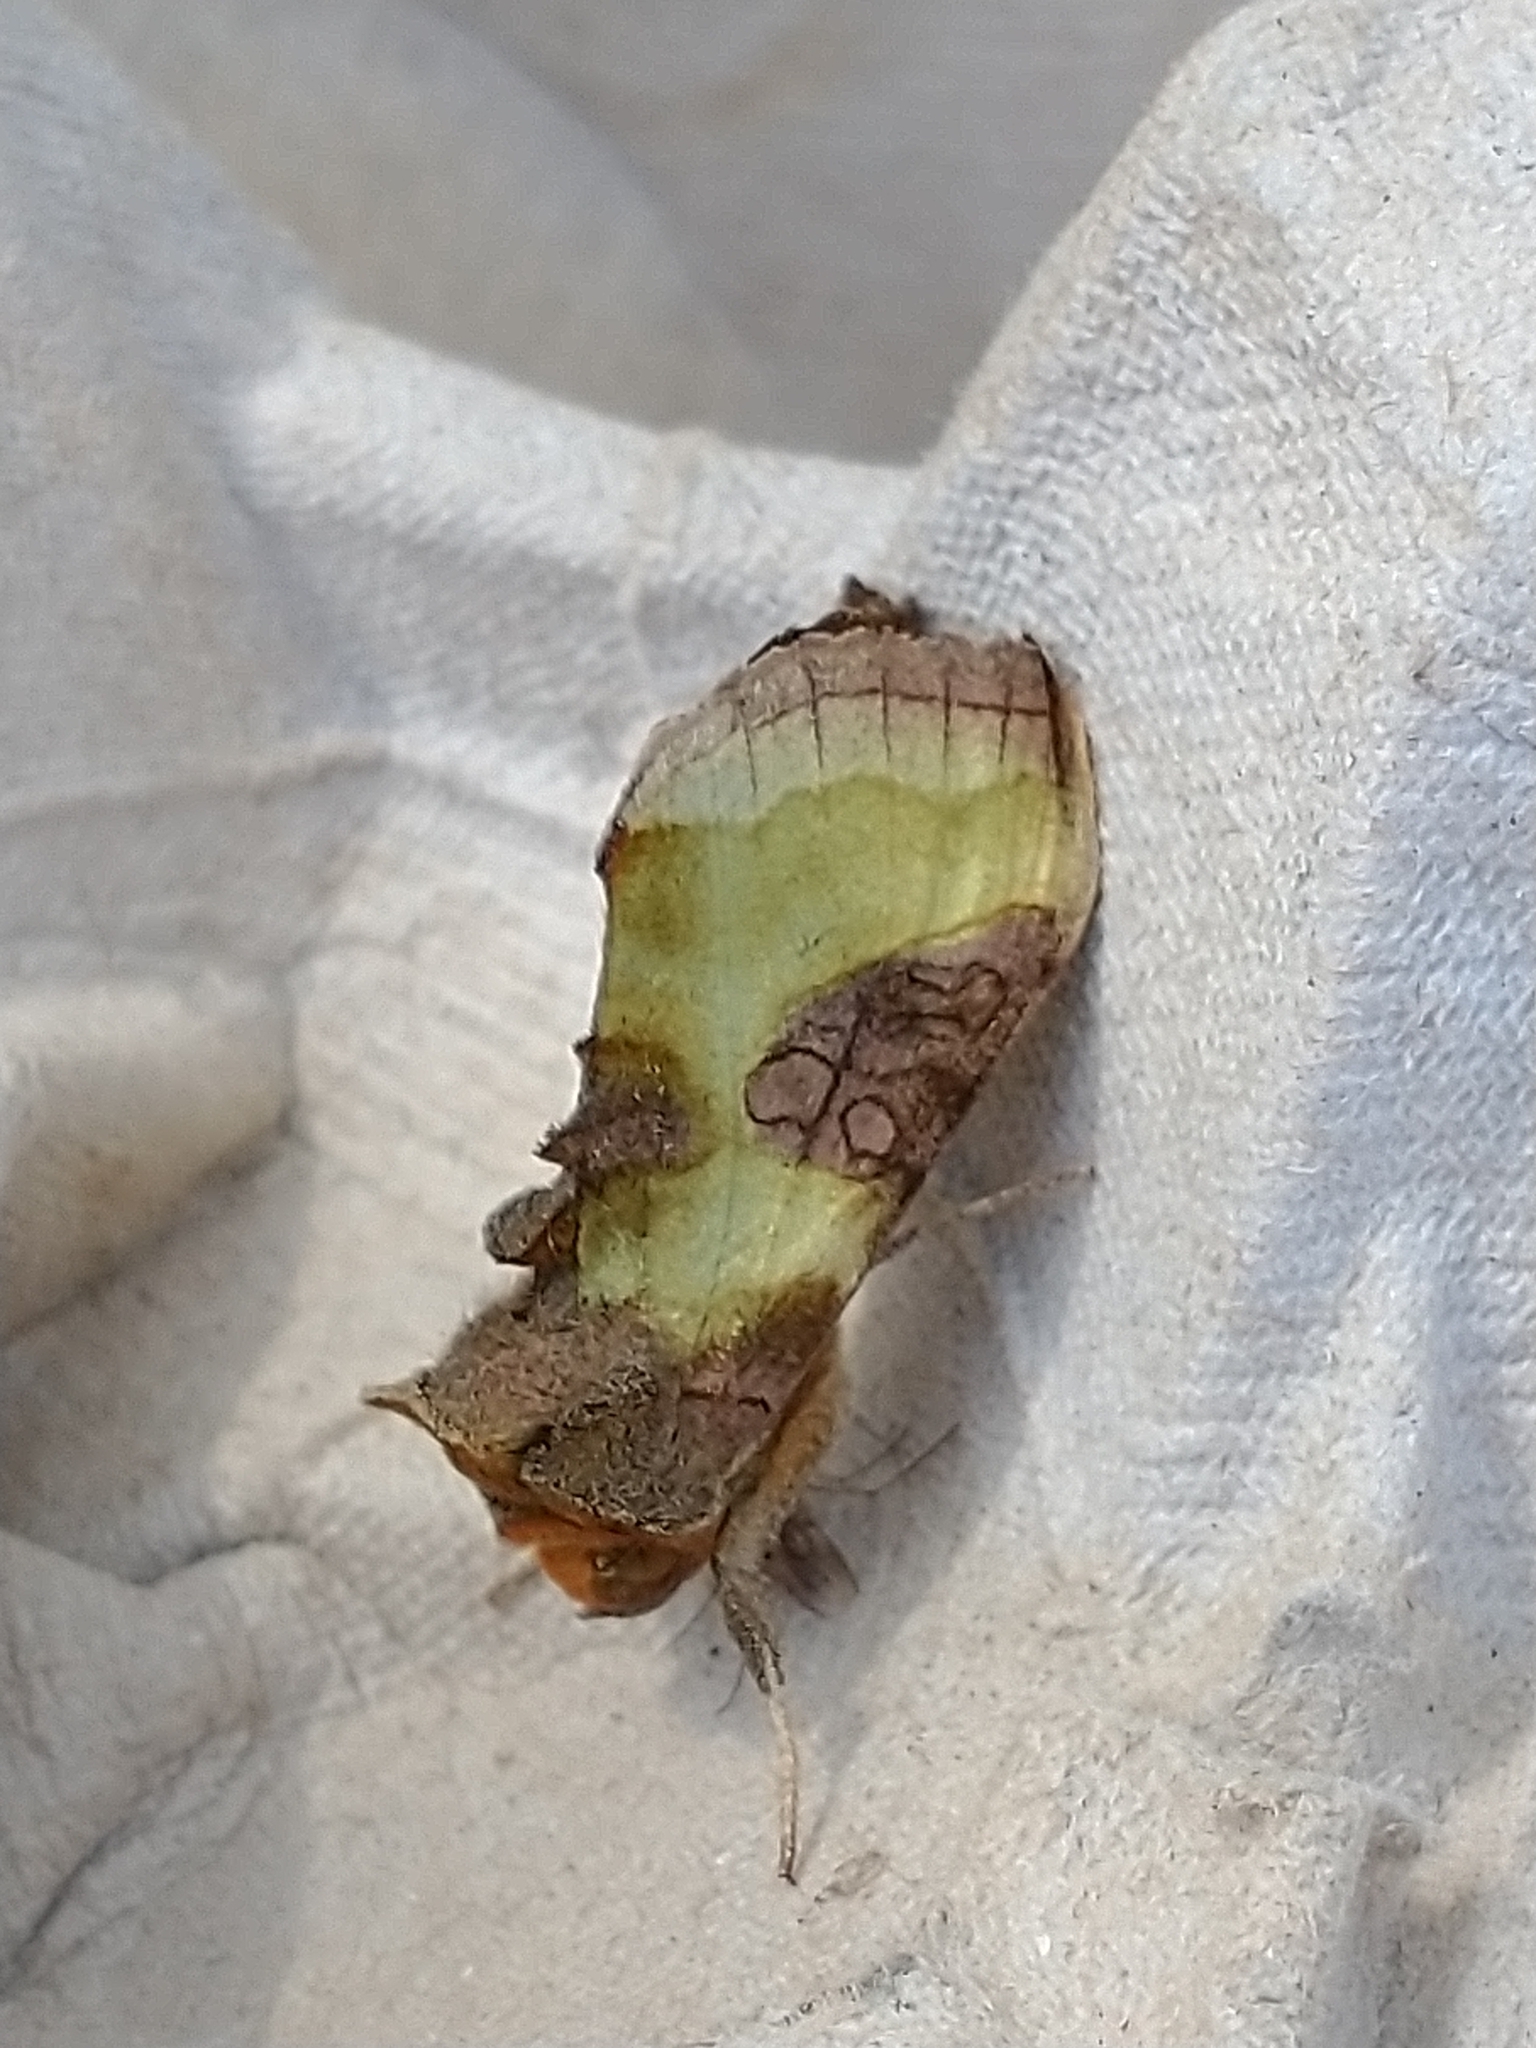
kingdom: Animalia
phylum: Arthropoda
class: Insecta
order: Lepidoptera
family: Noctuidae
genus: Diachrysia
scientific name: Diachrysia chrysitis
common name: Burnished brass
